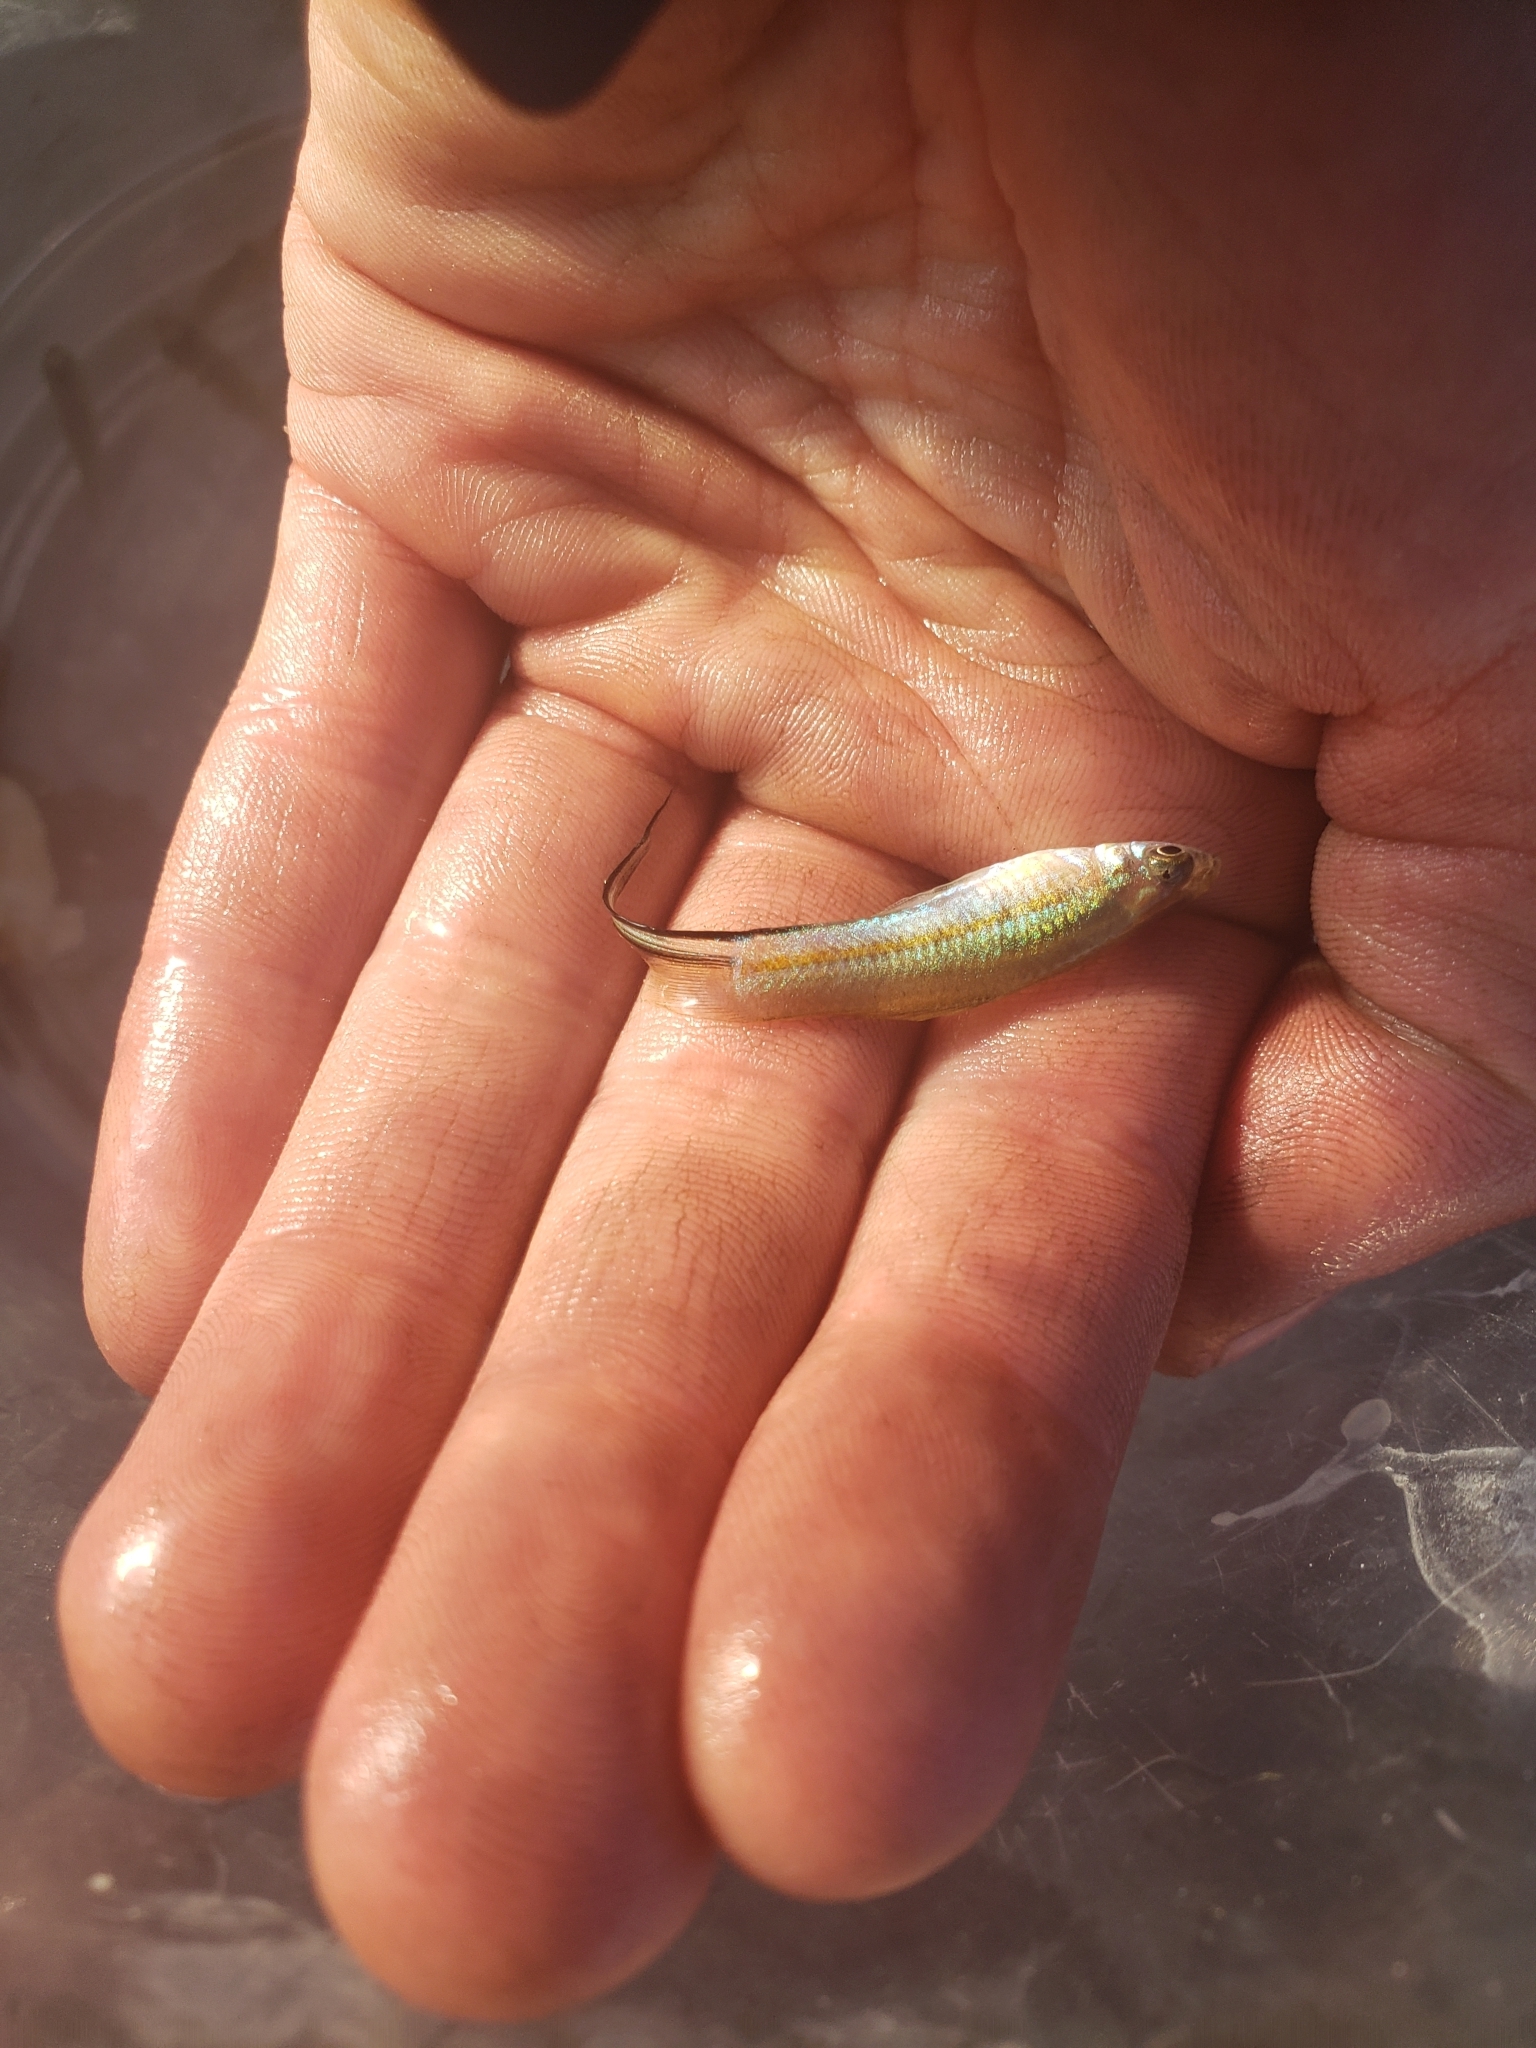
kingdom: Animalia
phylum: Chordata
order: Cyprinodontiformes
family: Poeciliidae
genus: Xiphophorus
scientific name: Xiphophorus hellerii
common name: Green swordtail
